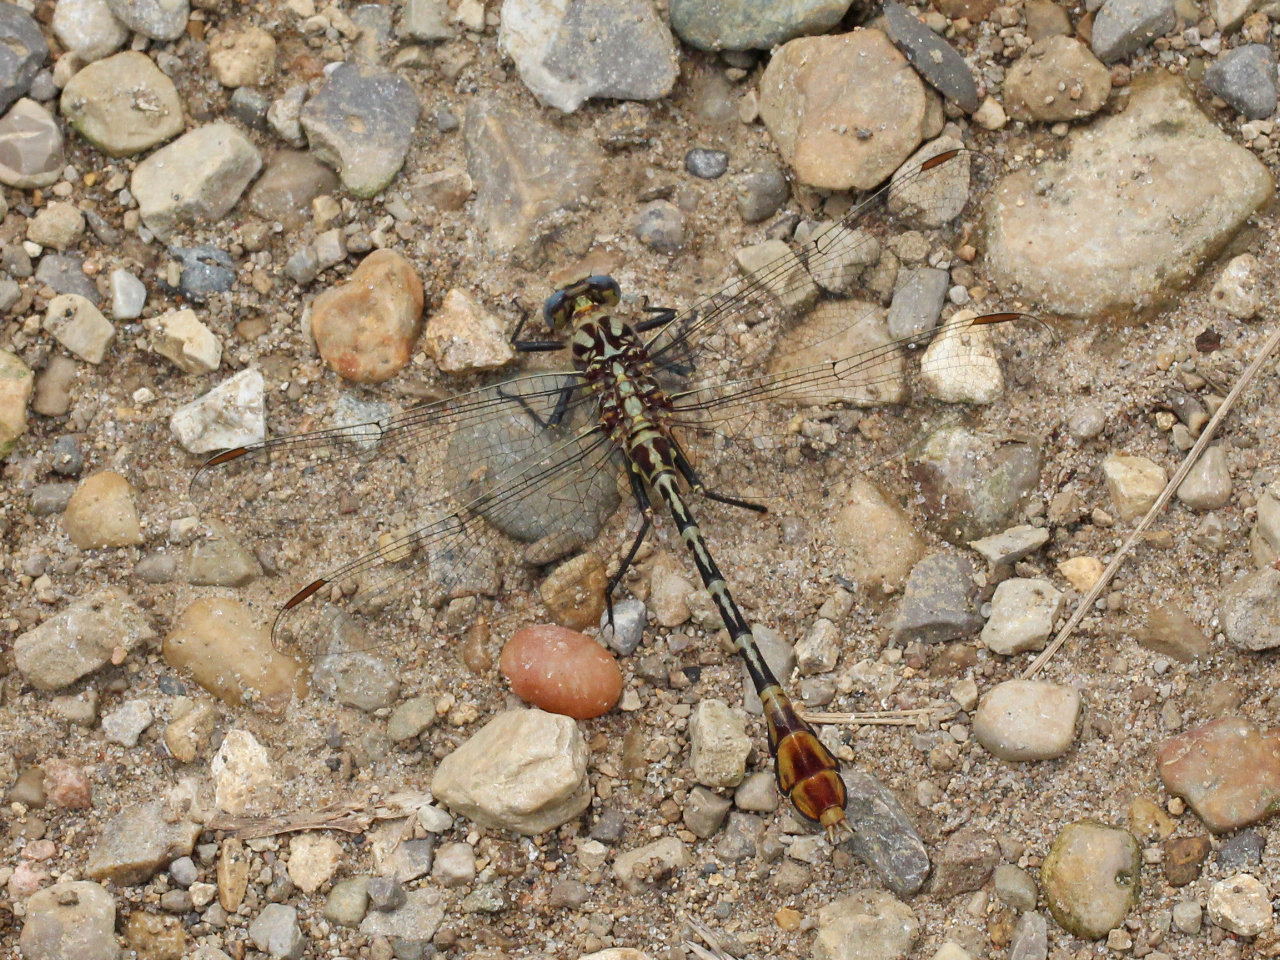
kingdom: Animalia
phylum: Arthropoda
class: Insecta
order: Odonata
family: Gomphidae
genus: Dromogomphus
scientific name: Dromogomphus spoliatus
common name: Flag-tailed spinyleg
